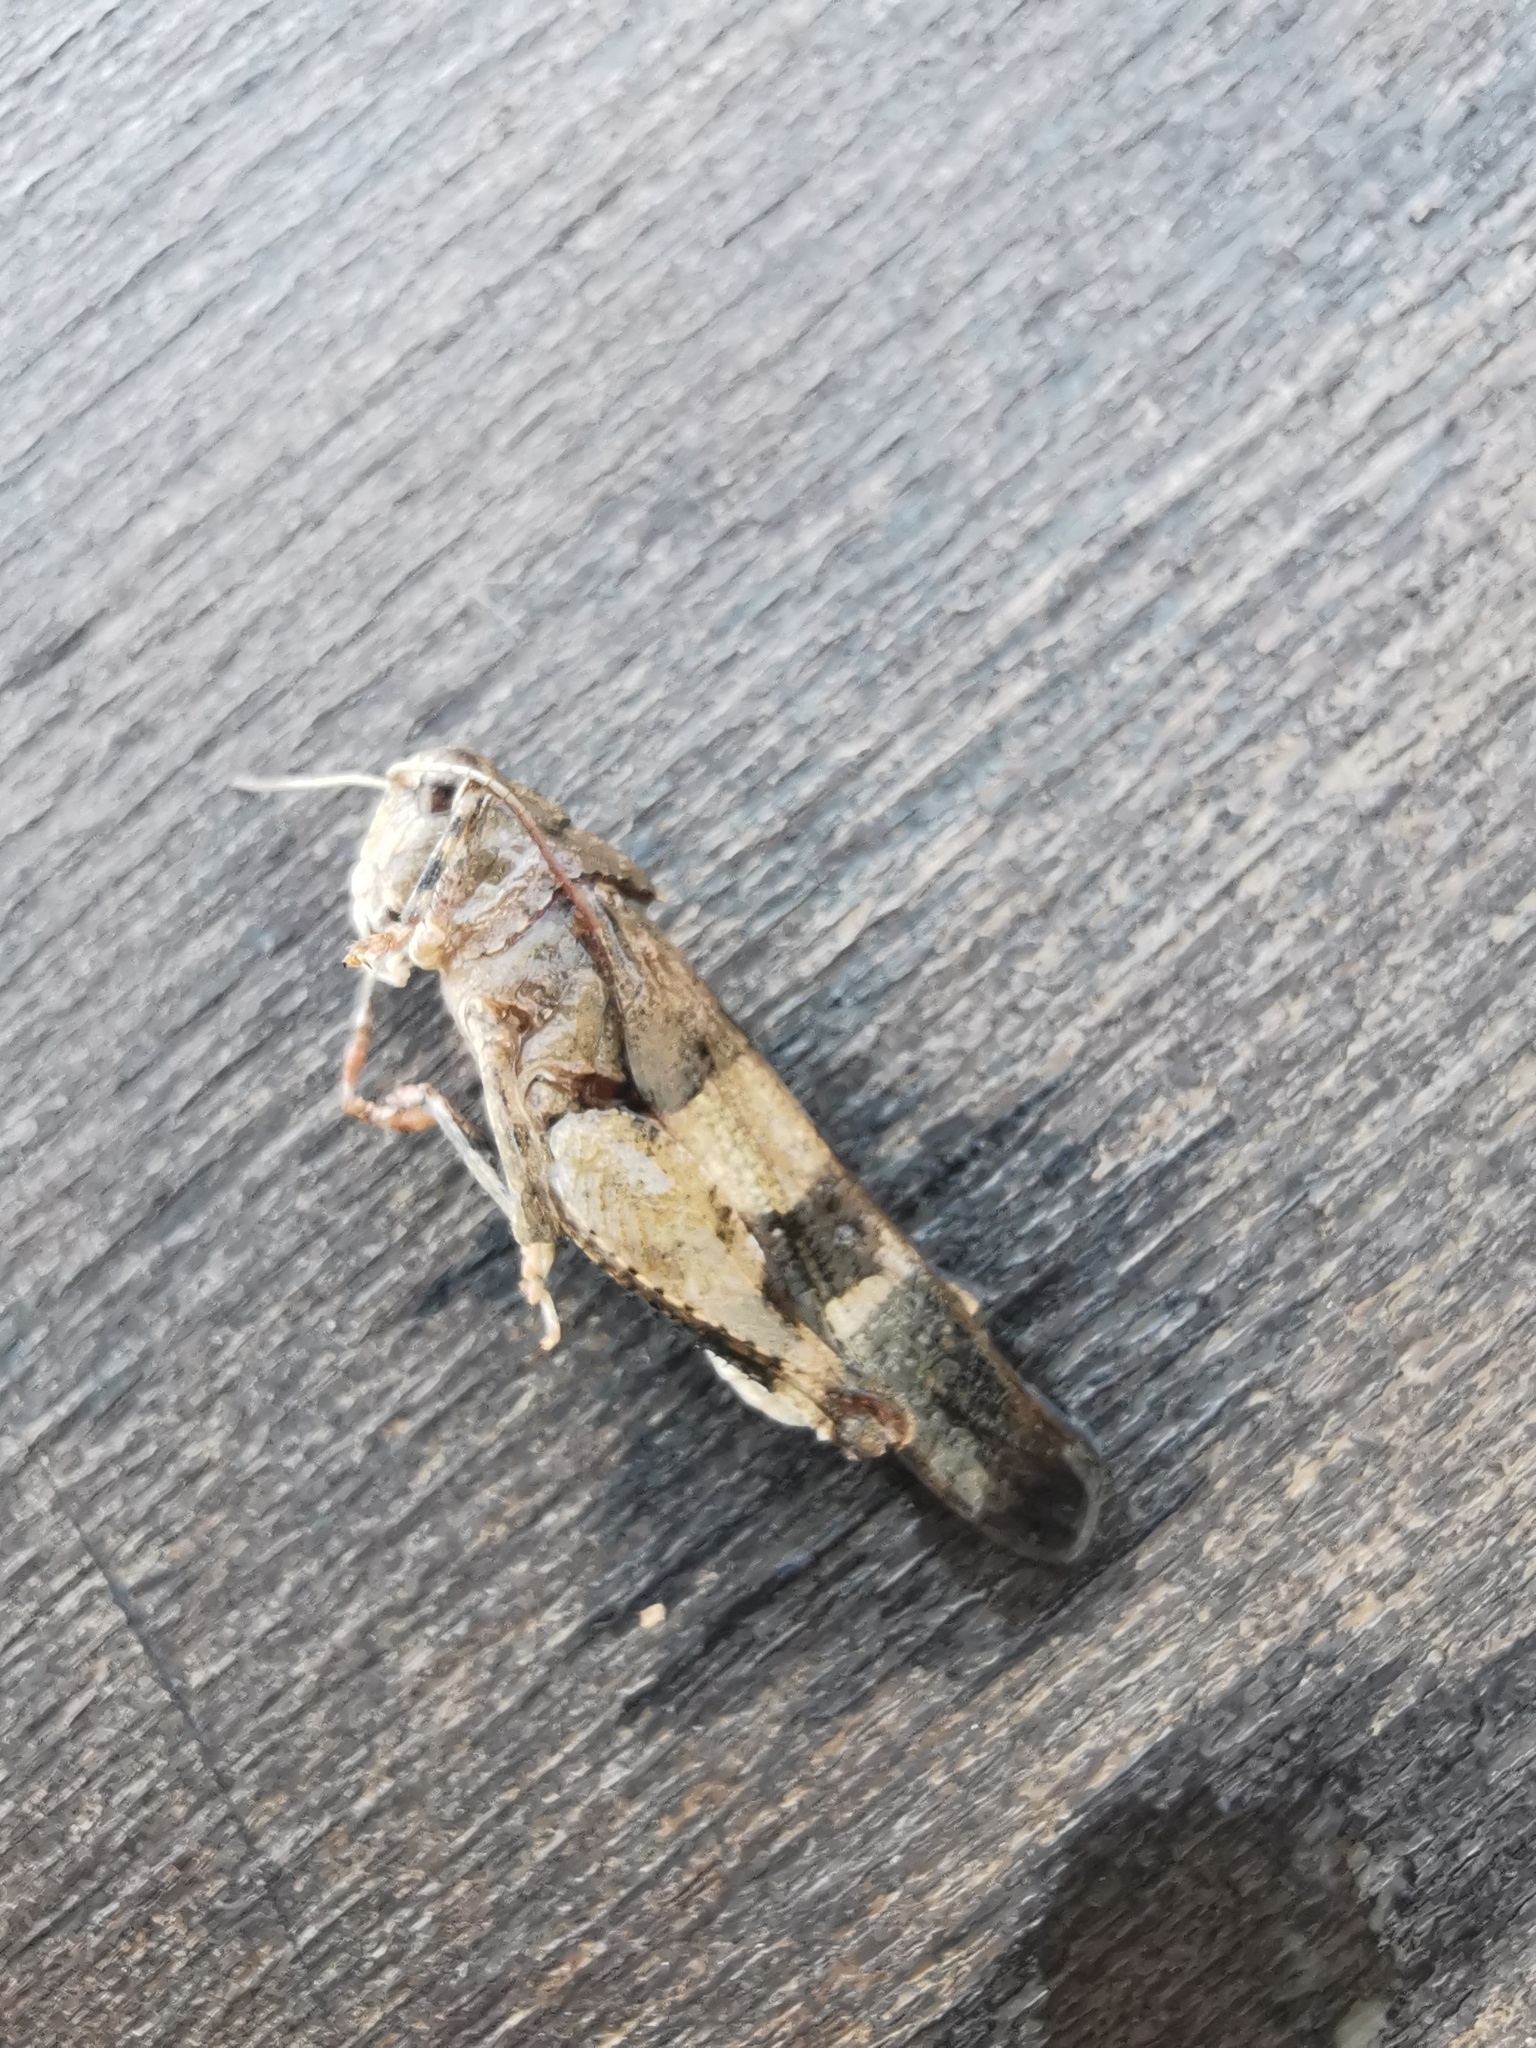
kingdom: Animalia
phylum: Arthropoda
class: Insecta
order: Orthoptera
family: Acrididae
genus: Oedipoda
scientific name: Oedipoda caerulescens
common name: Blue-winged grasshopper
